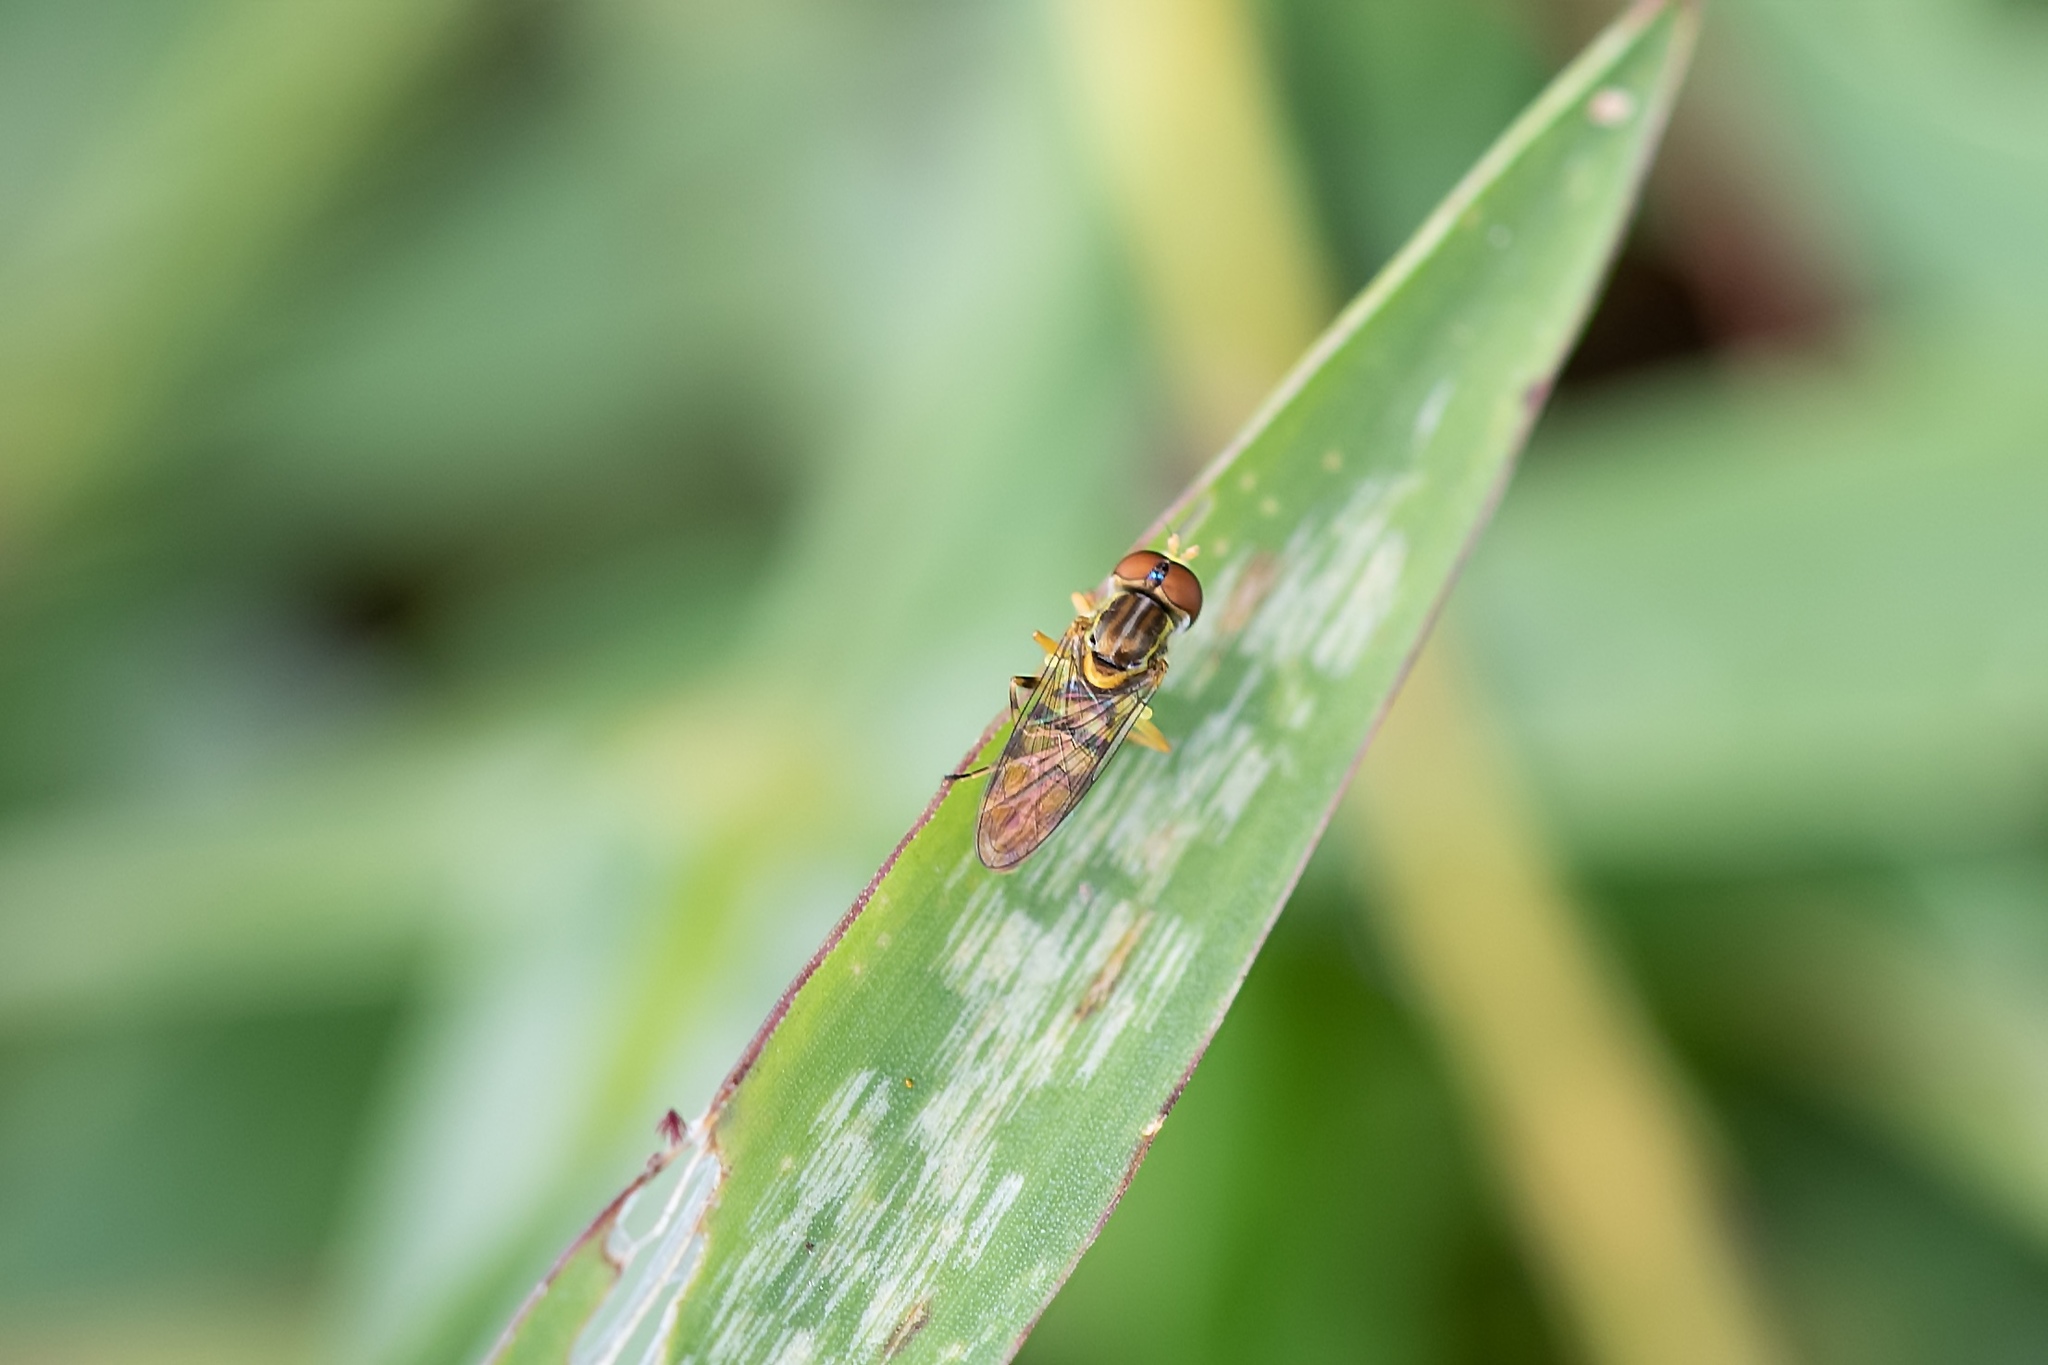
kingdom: Animalia
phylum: Arthropoda
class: Insecta
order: Diptera
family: Syrphidae
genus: Toxomerus
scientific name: Toxomerus floralis
